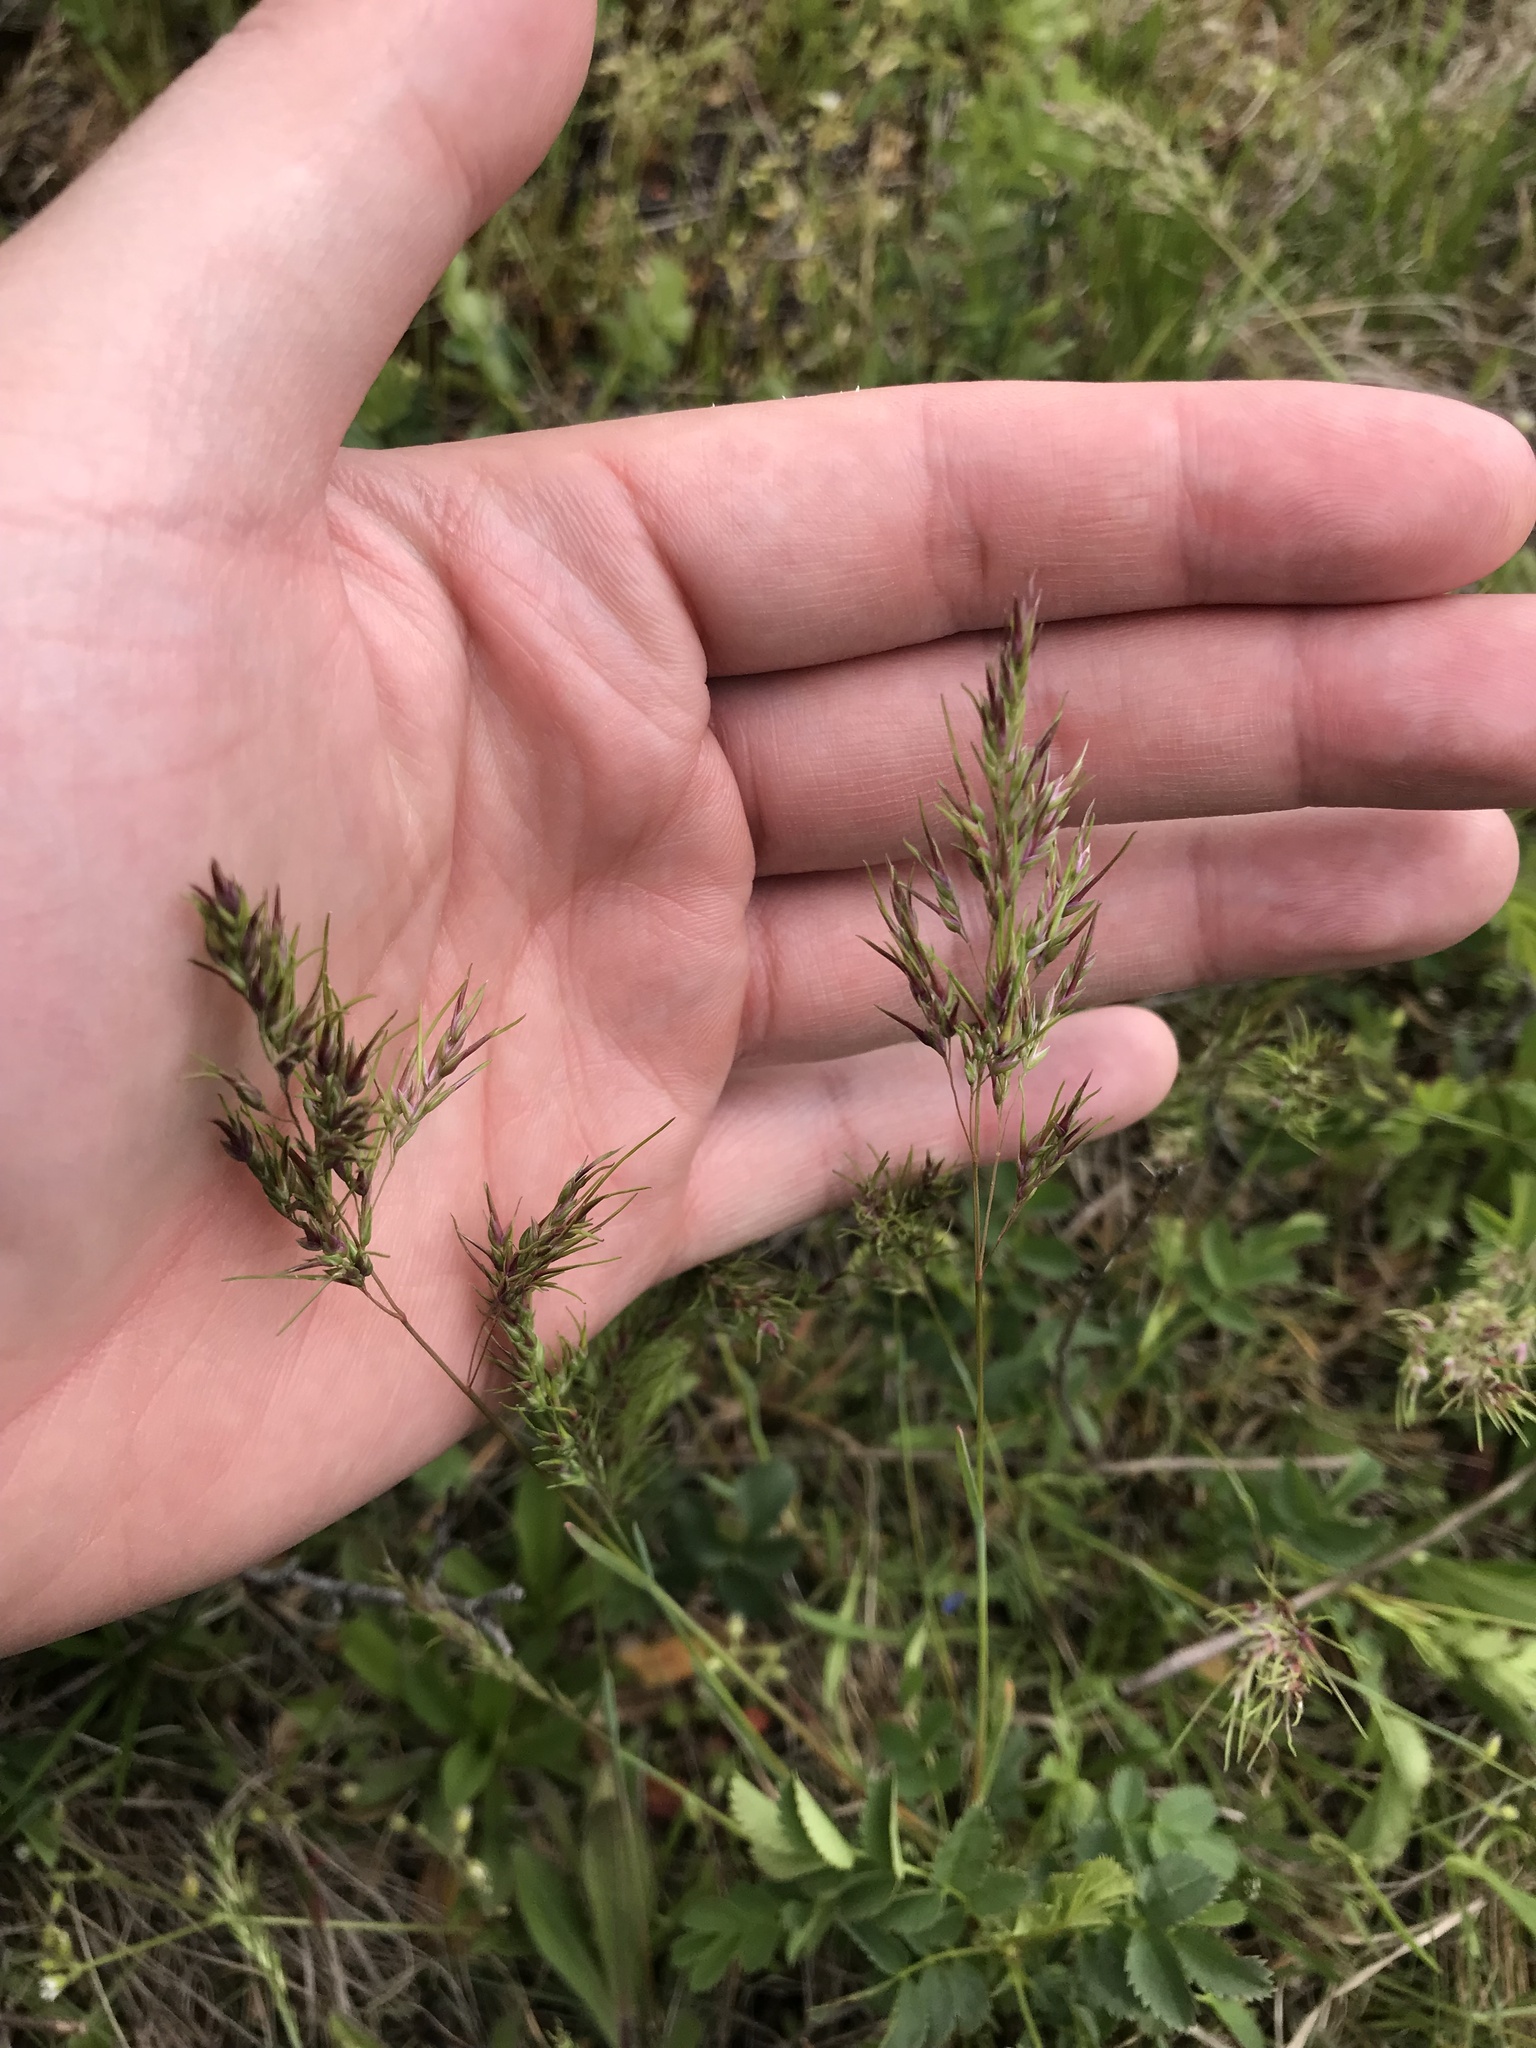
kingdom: Plantae
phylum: Tracheophyta
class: Liliopsida
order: Poales
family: Poaceae
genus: Poa
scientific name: Poa bulbosa
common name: Bulbous bluegrass
